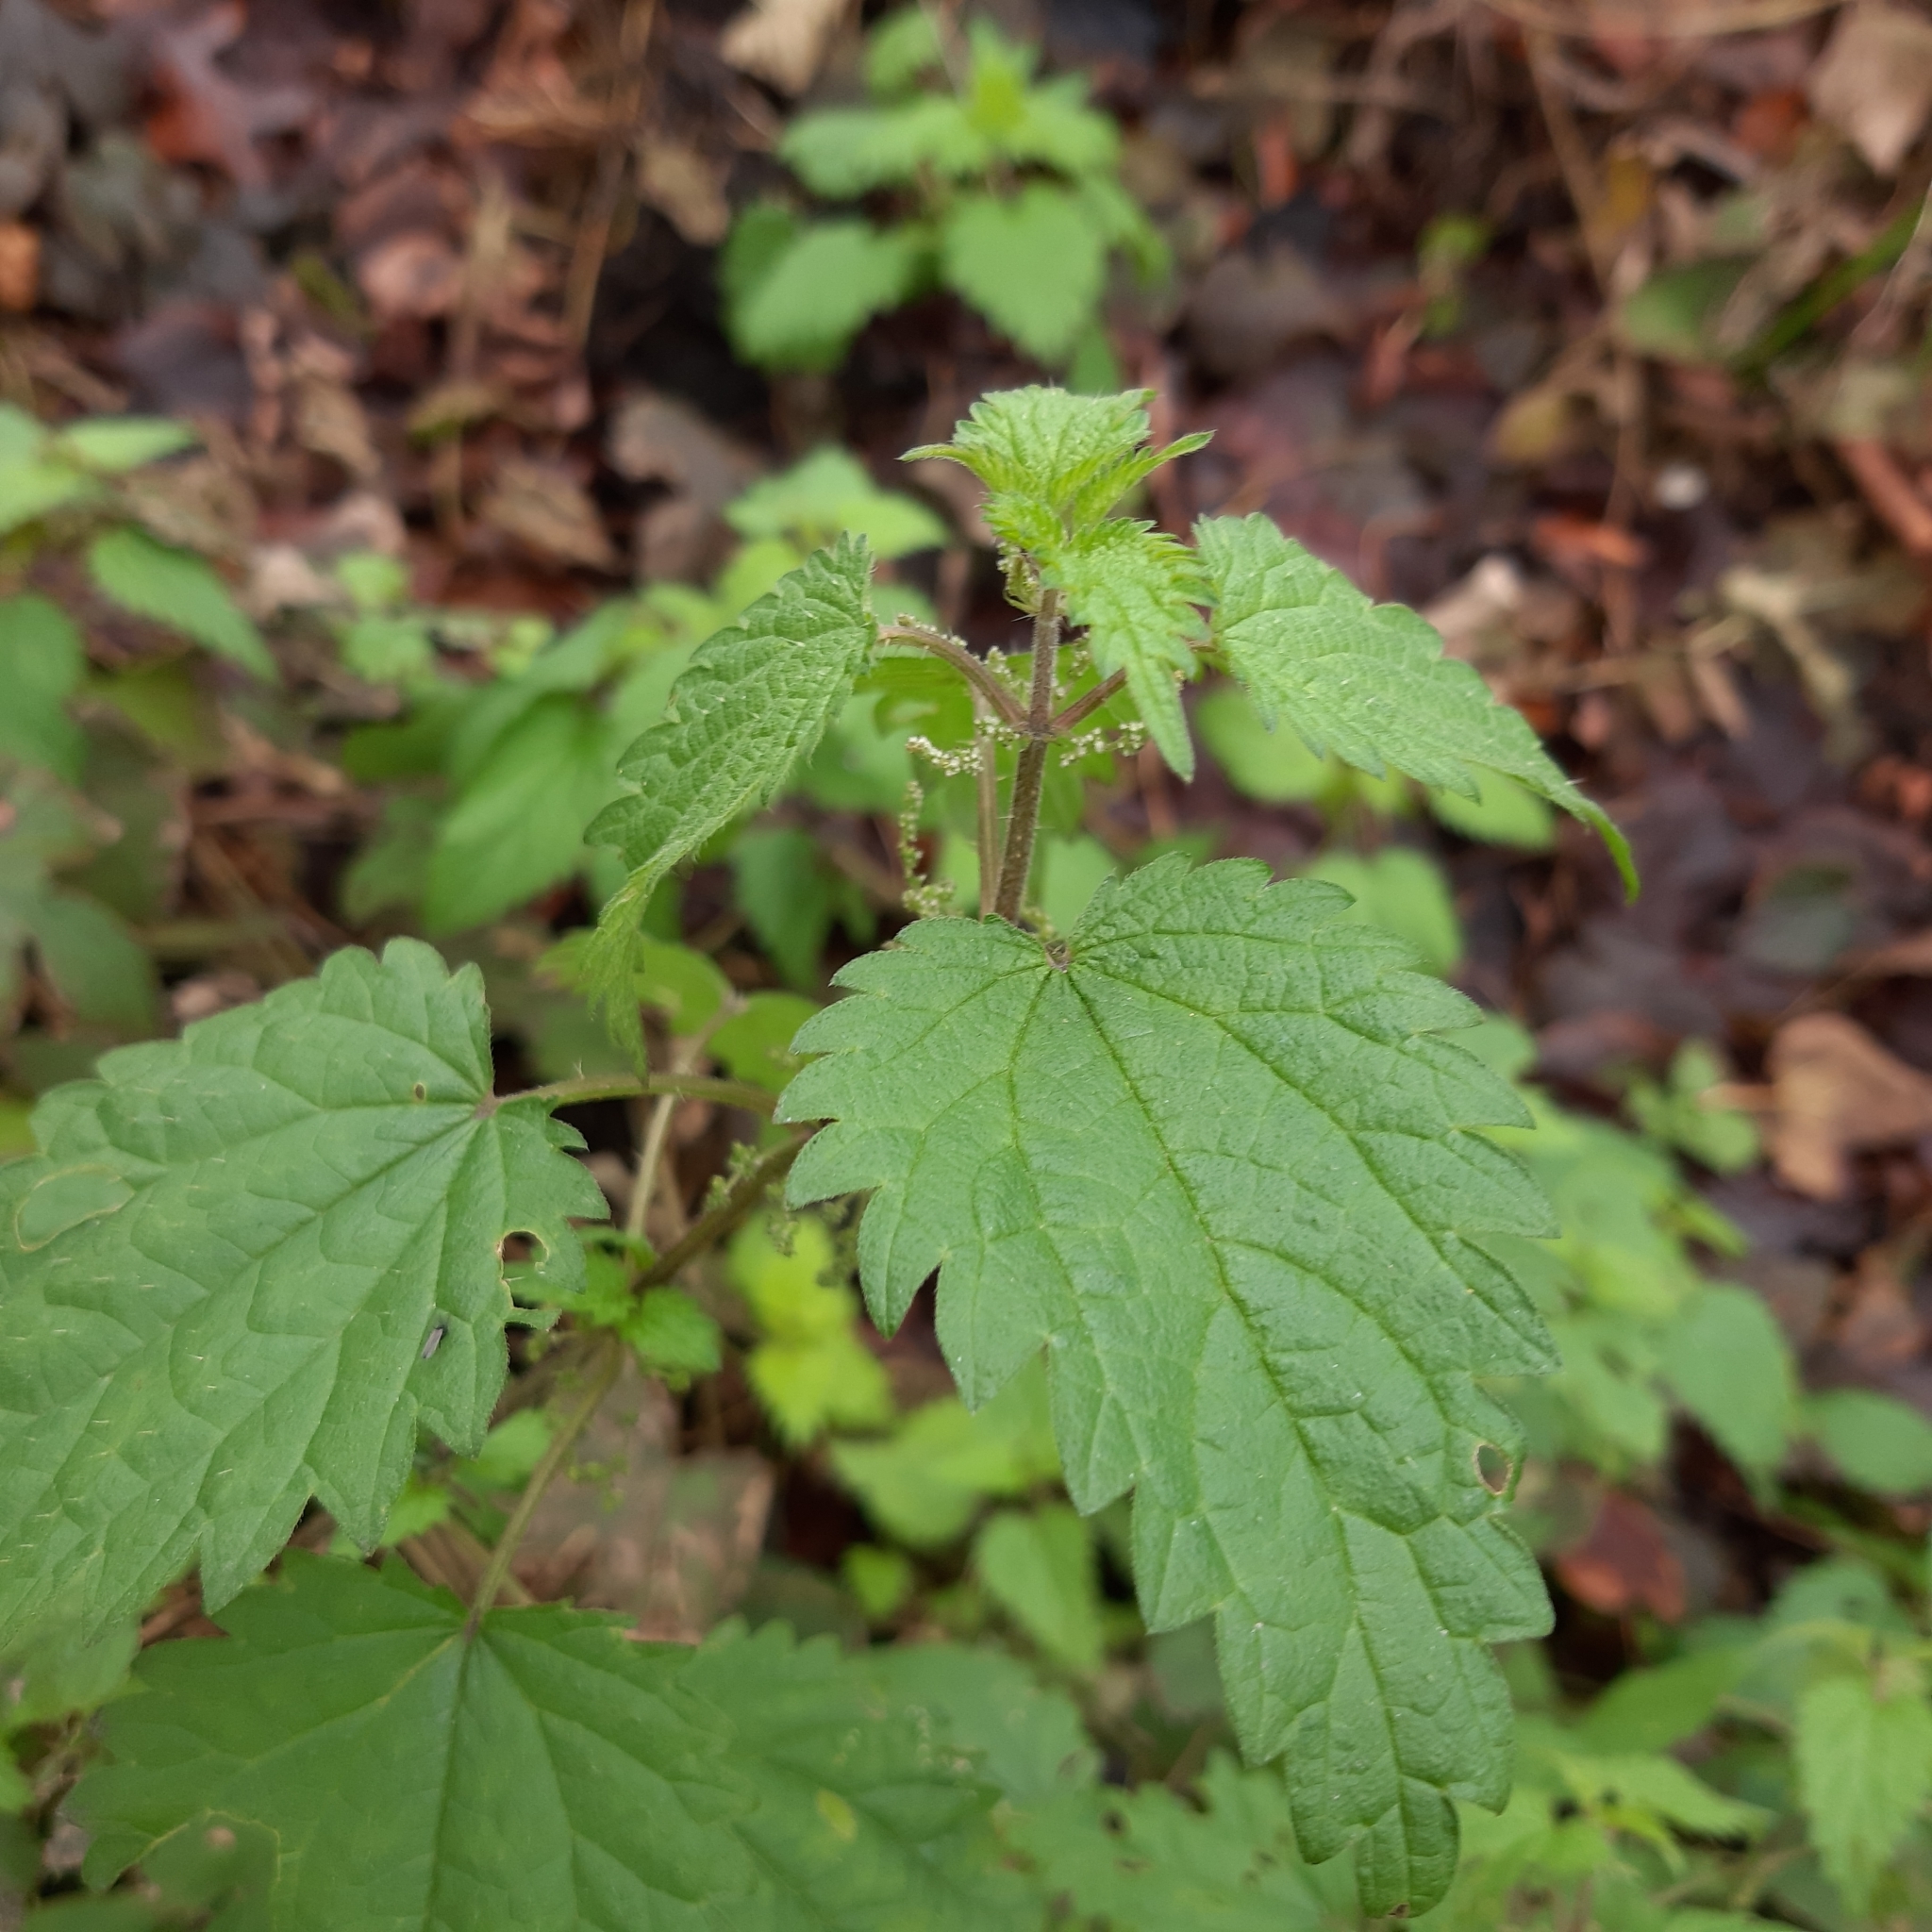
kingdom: Plantae
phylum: Tracheophyta
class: Magnoliopsida
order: Rosales
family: Urticaceae
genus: Urtica
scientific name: Urtica dioica
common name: Common nettle
